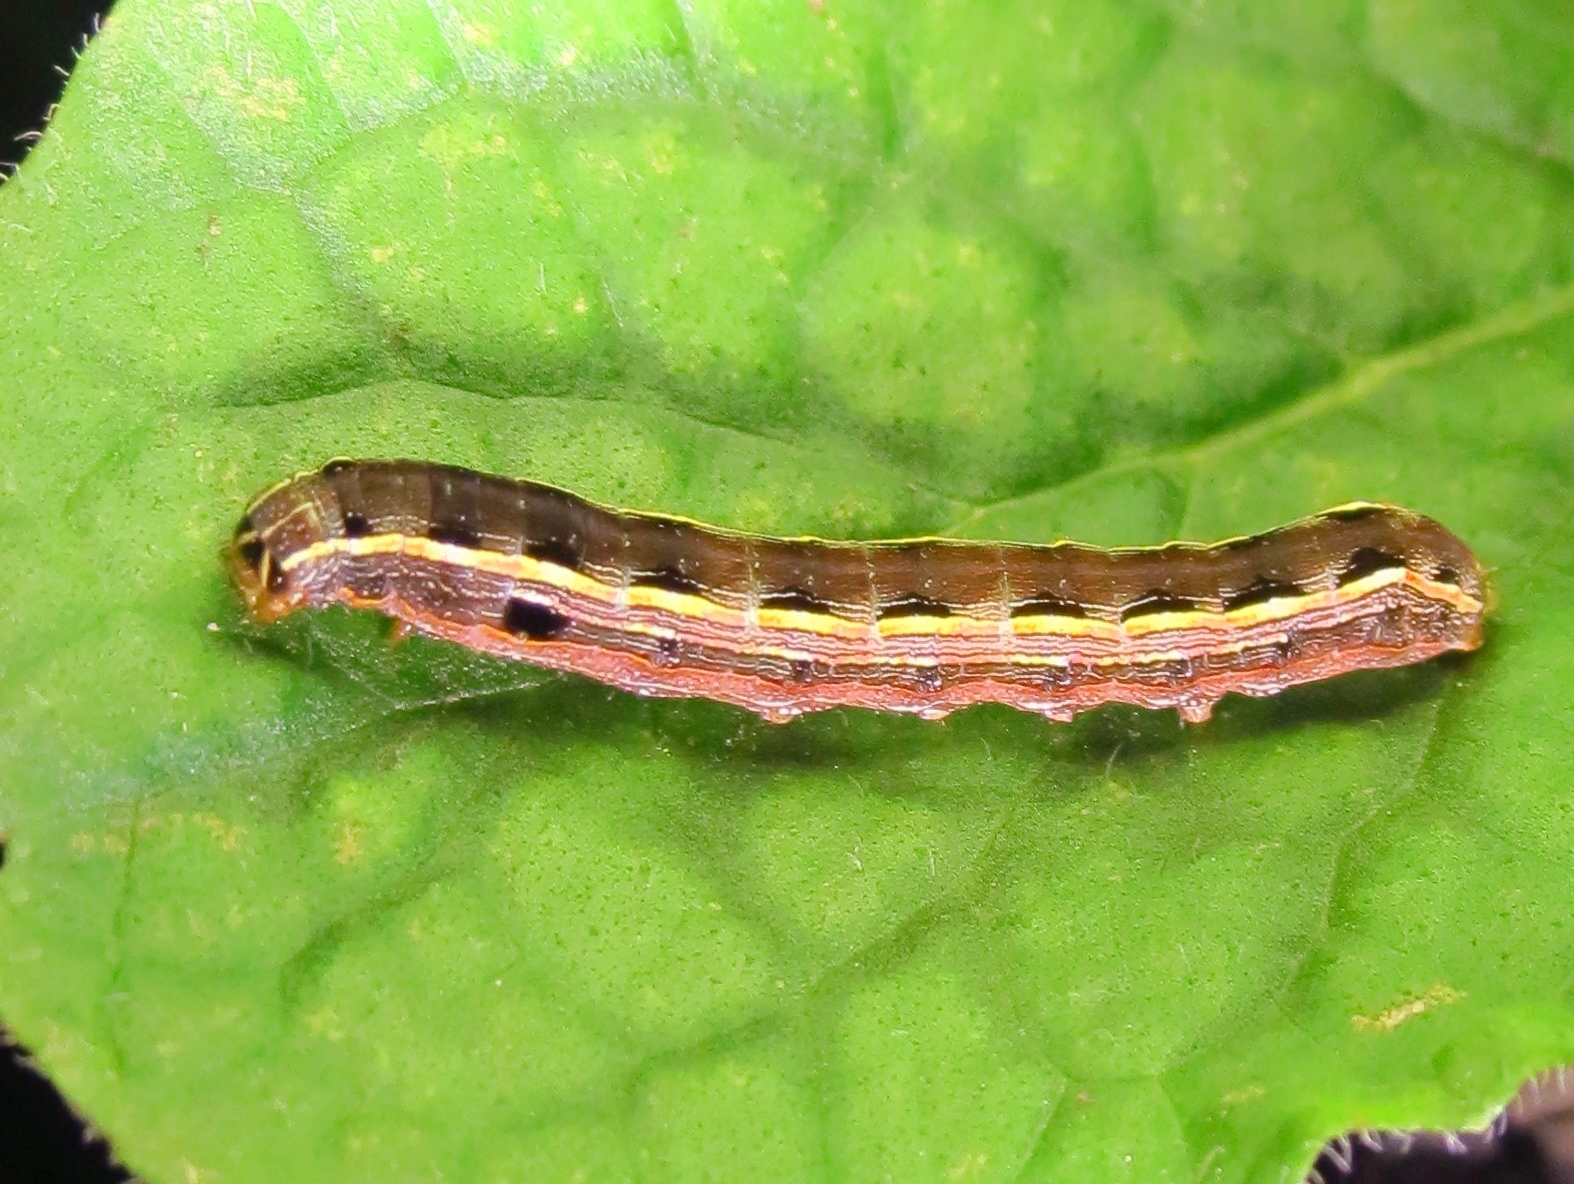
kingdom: Animalia
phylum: Arthropoda
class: Insecta
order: Lepidoptera
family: Noctuidae
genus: Spodoptera
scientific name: Spodoptera ornithogalli
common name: Yellow-striped armyworm
